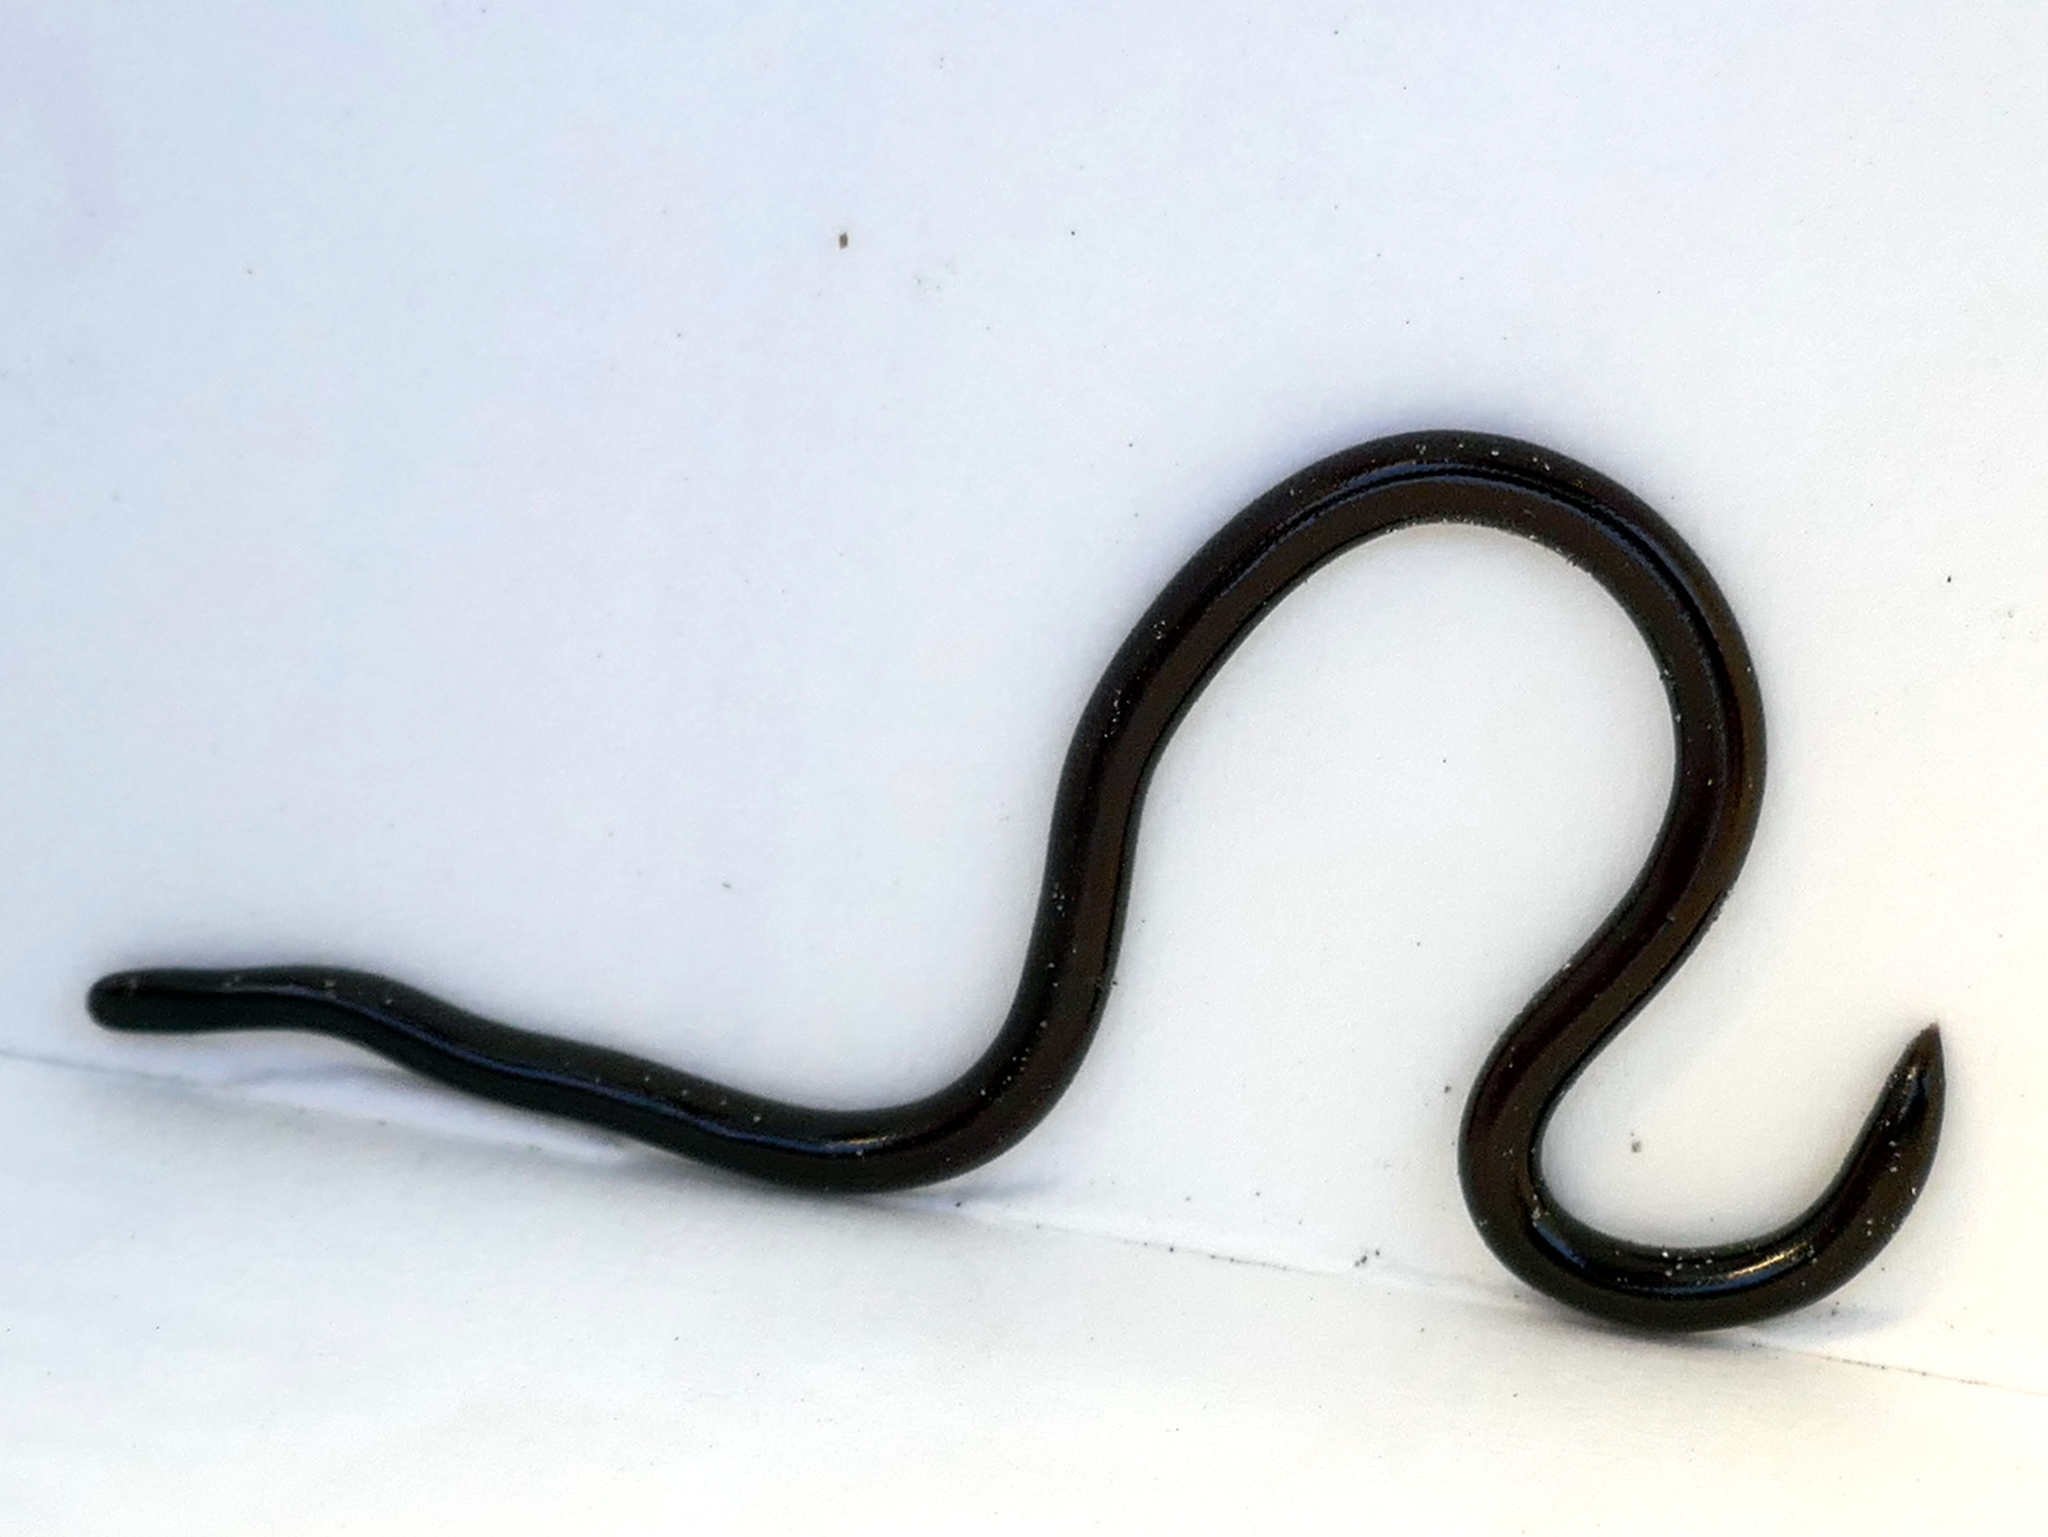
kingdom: Animalia
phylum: Chordata
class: Squamata
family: Typhlopidae
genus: Indotyphlops
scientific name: Indotyphlops braminus
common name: Brahminy blindsnake
